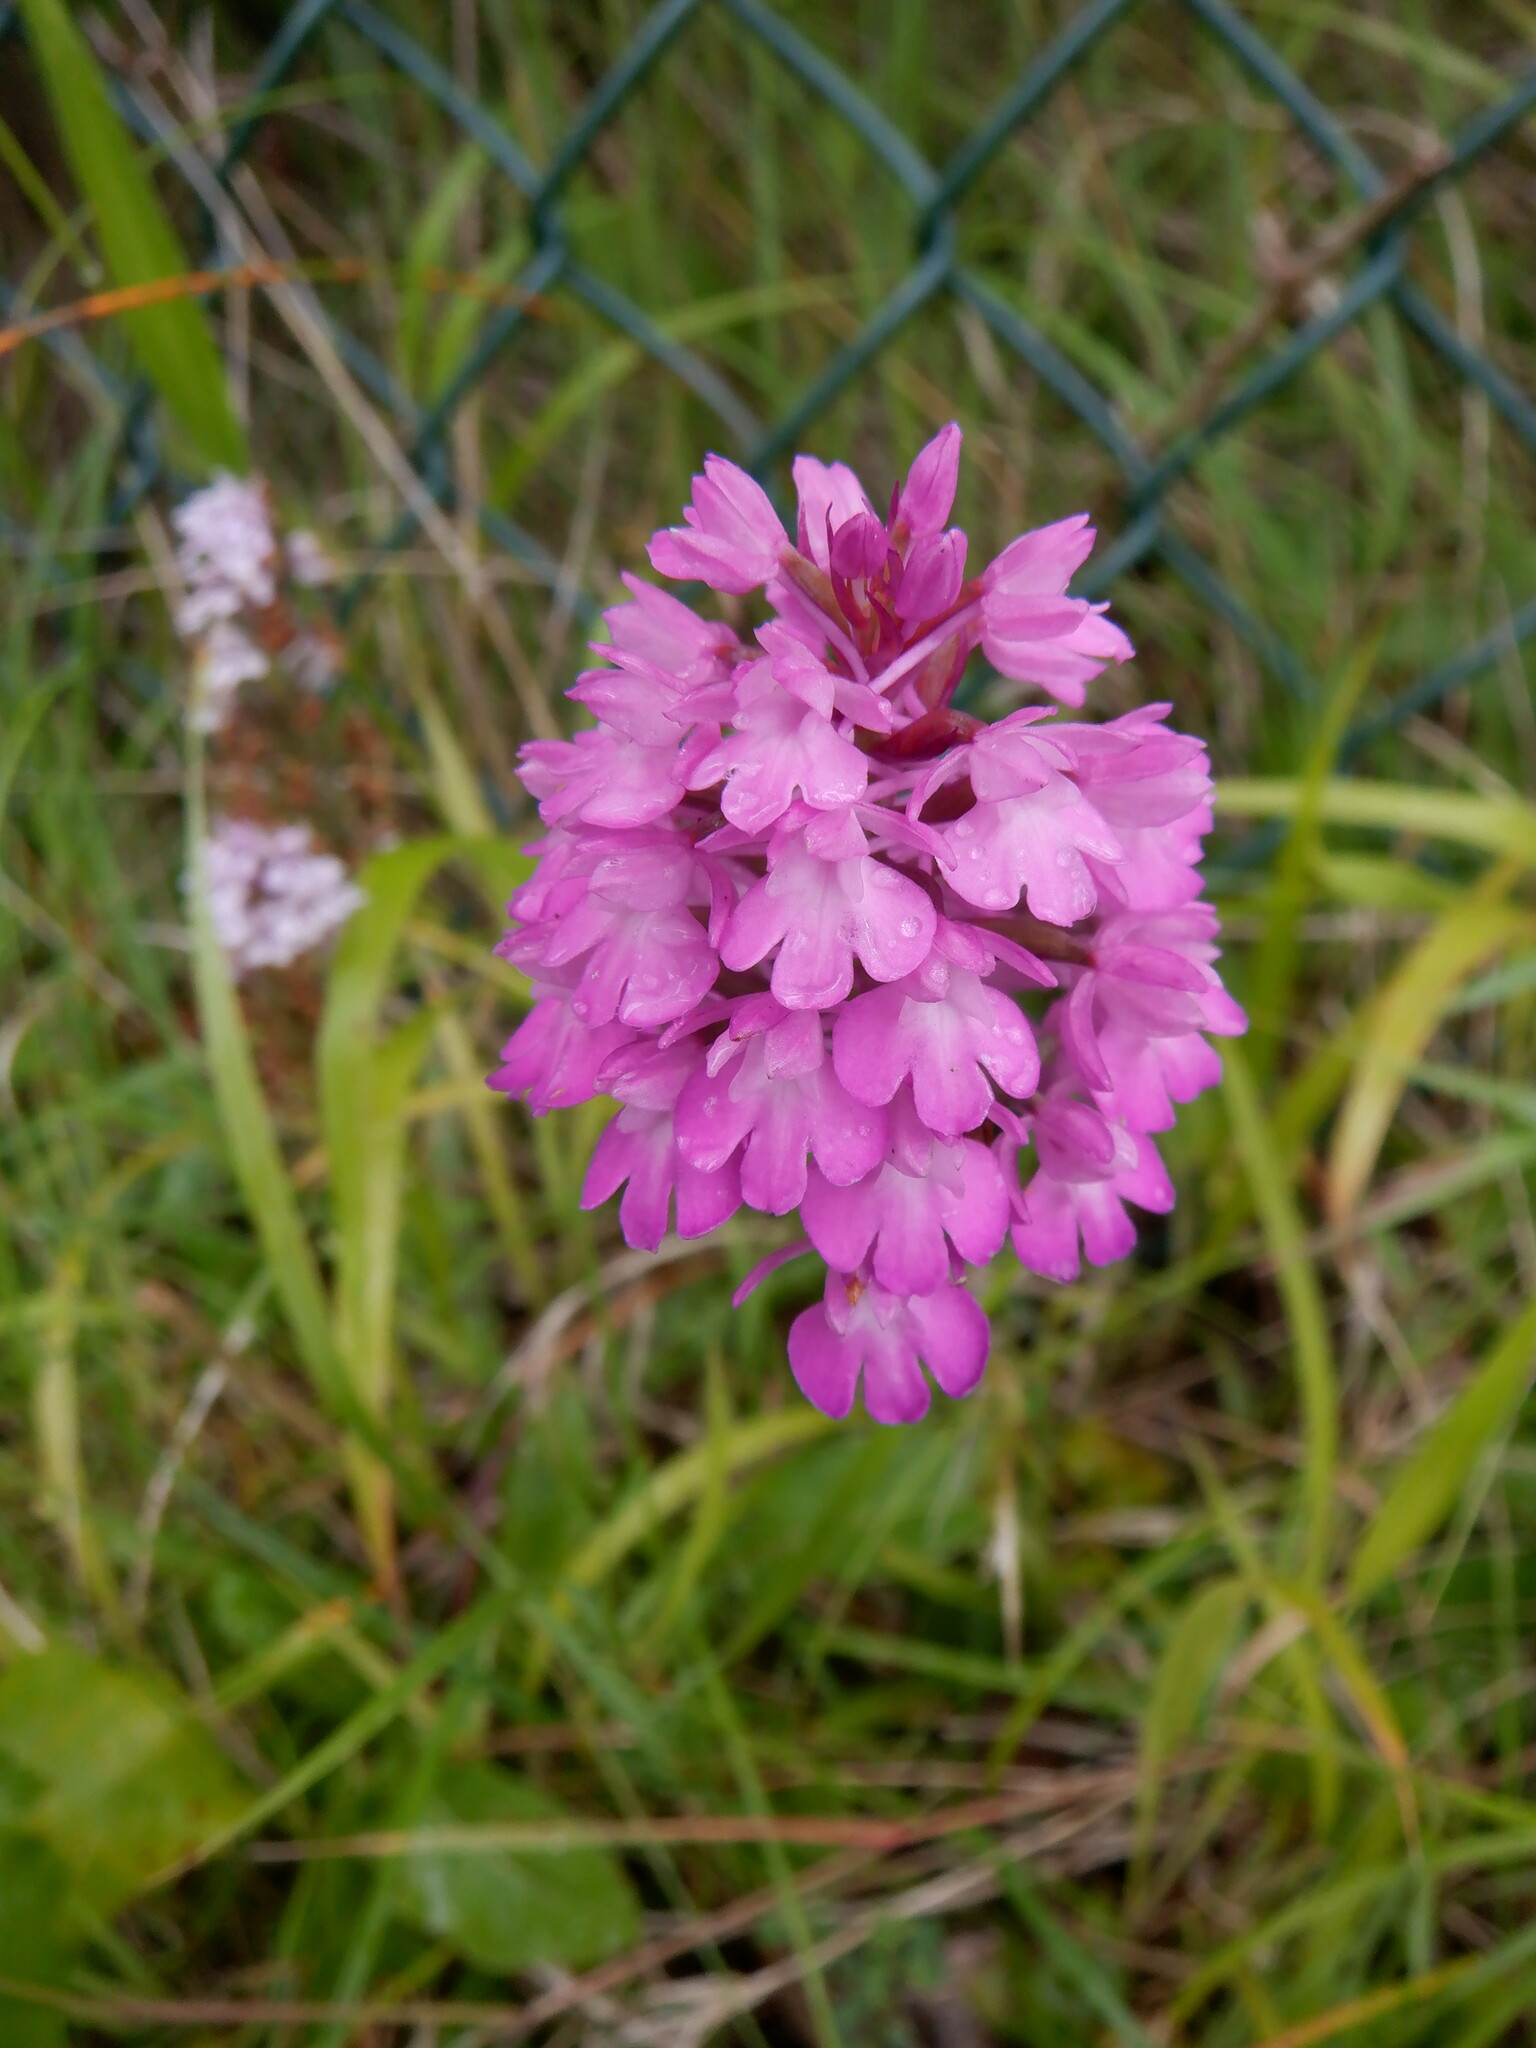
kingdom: Plantae
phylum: Tracheophyta
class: Liliopsida
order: Asparagales
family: Orchidaceae
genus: Anacamptis
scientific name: Anacamptis pyramidalis
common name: Pyramidal orchid
